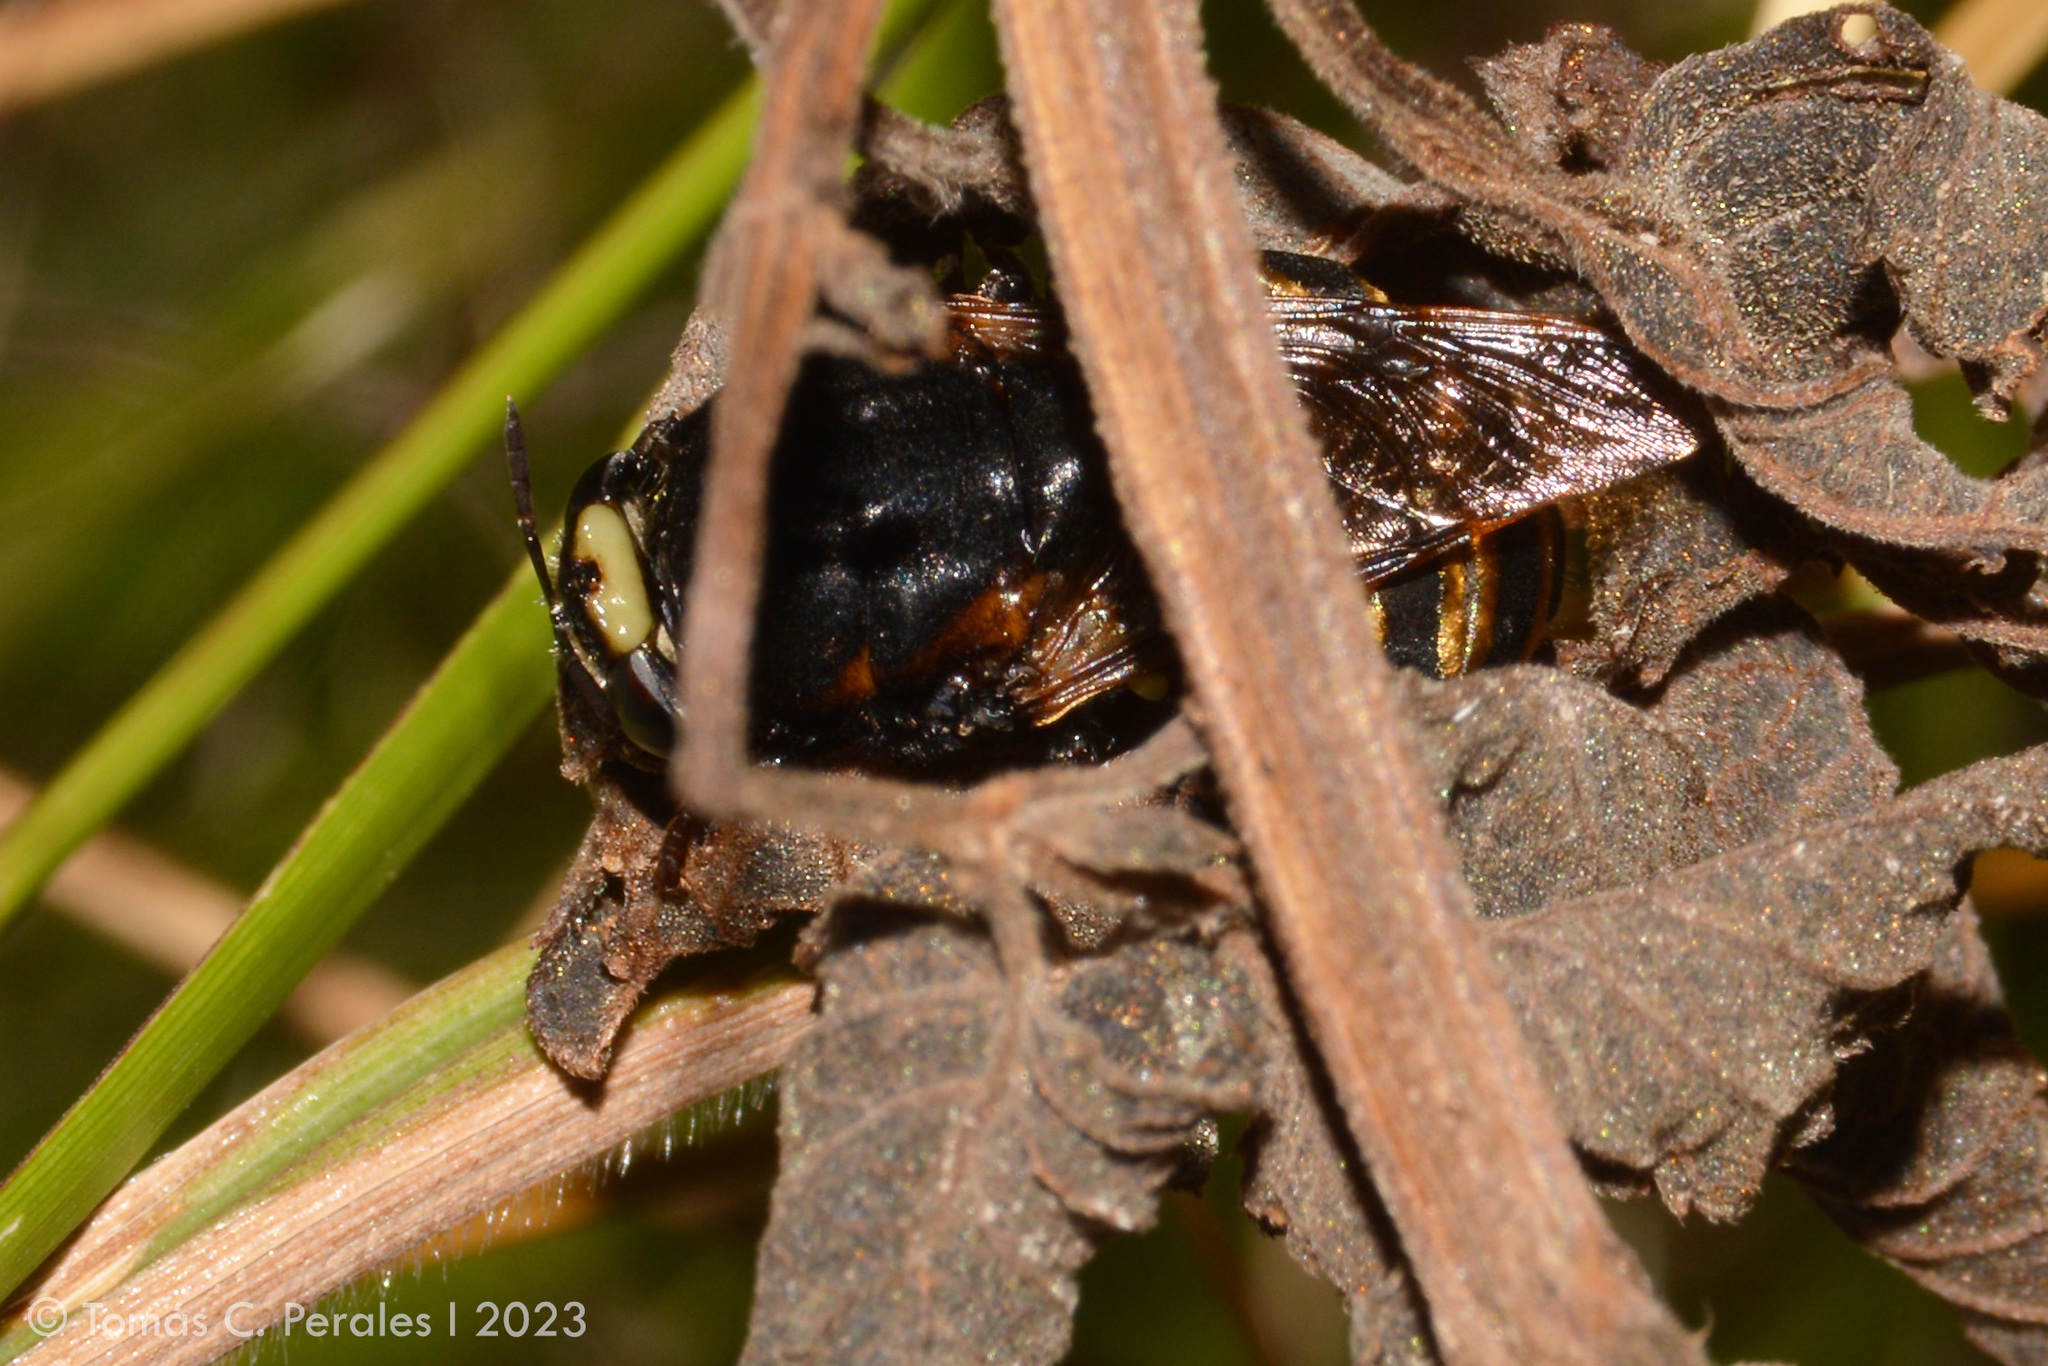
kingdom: Animalia
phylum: Arthropoda
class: Insecta
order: Diptera
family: Stratiomyidae
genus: Stratiomys
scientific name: Stratiomys constricta
